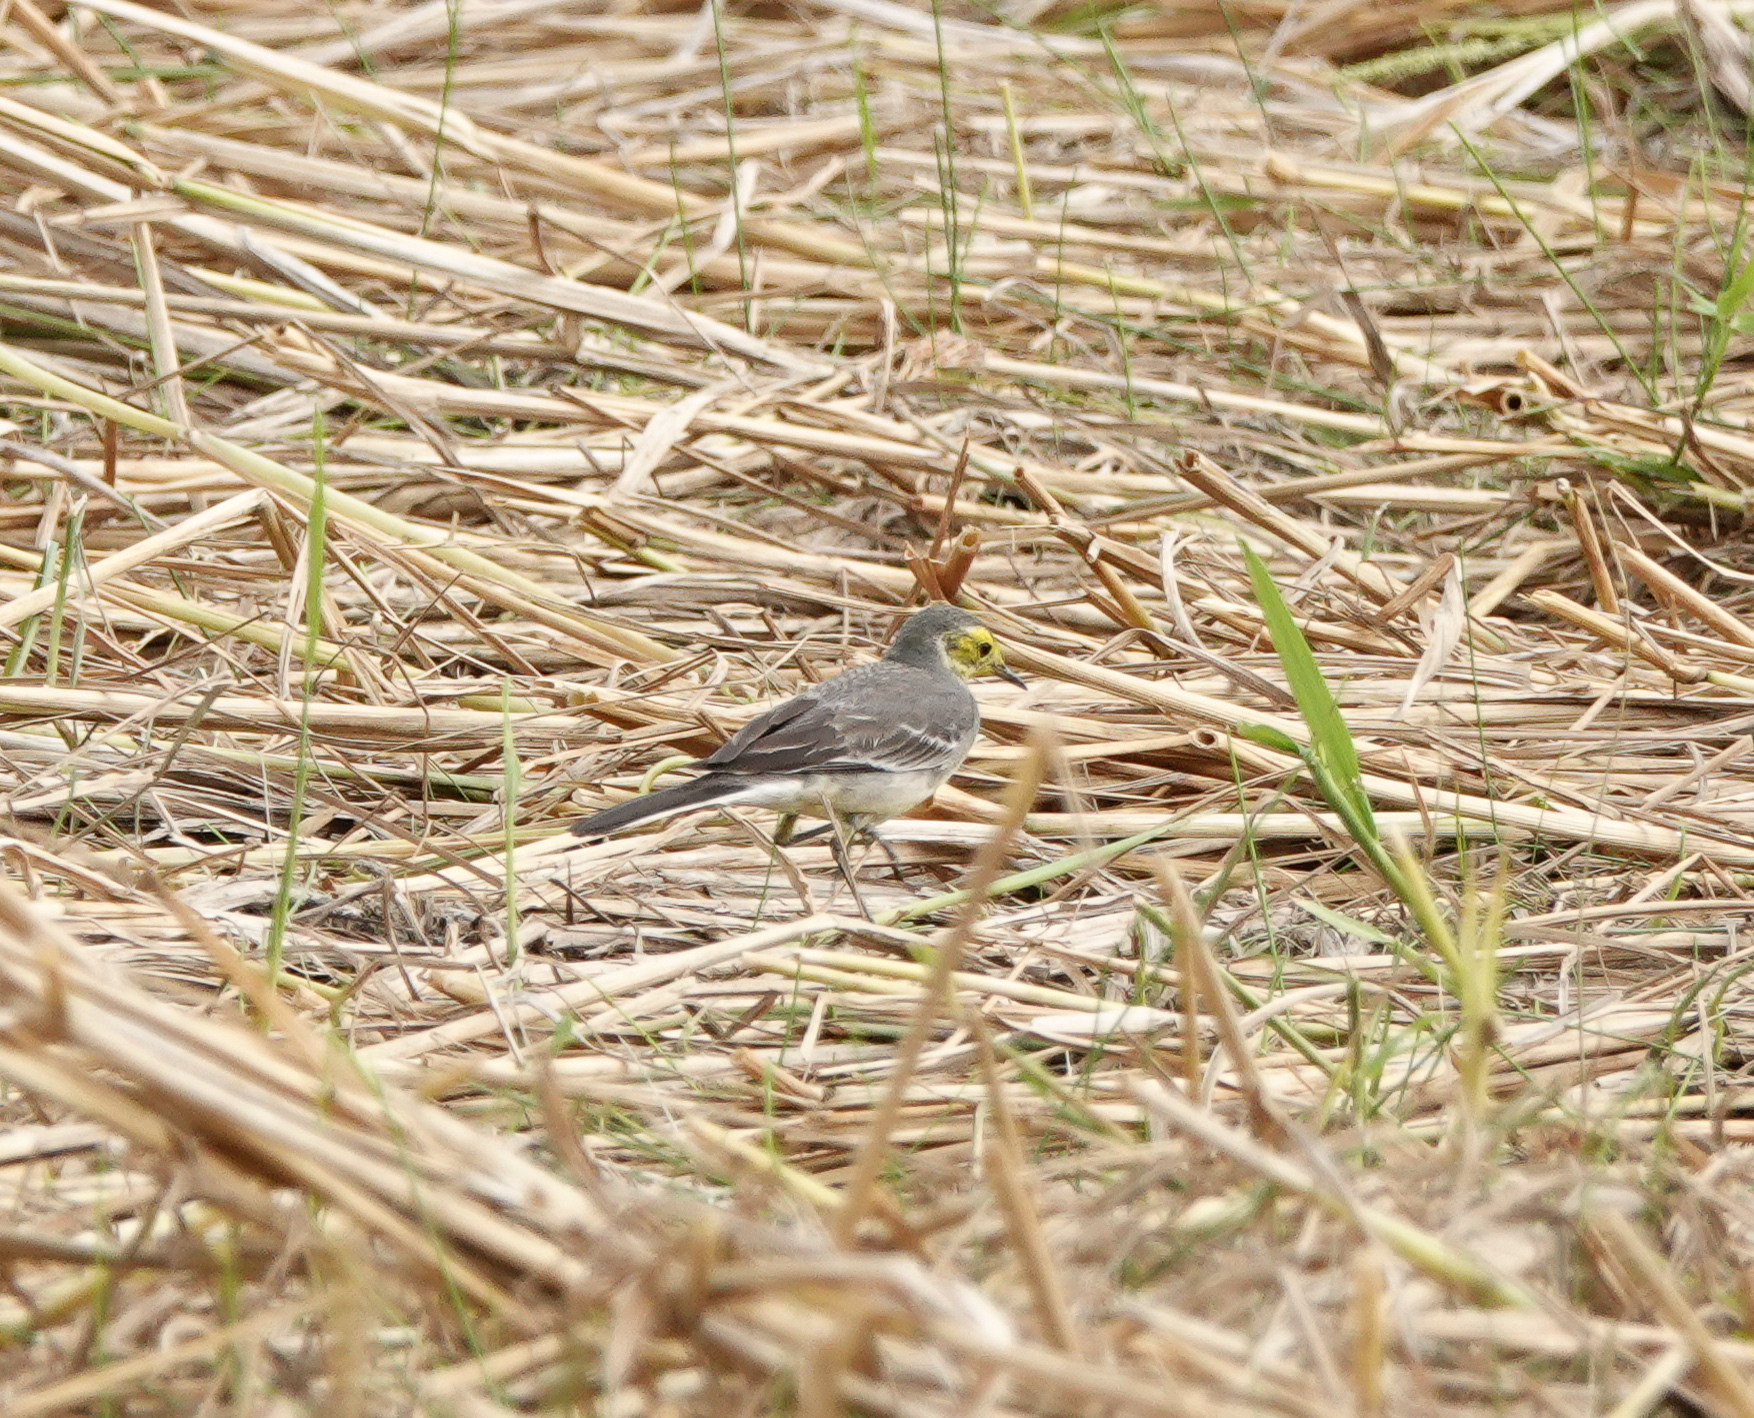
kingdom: Animalia
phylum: Chordata
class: Aves
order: Passeriformes
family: Motacillidae
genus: Motacilla
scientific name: Motacilla citreola
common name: Citrine wagtail
